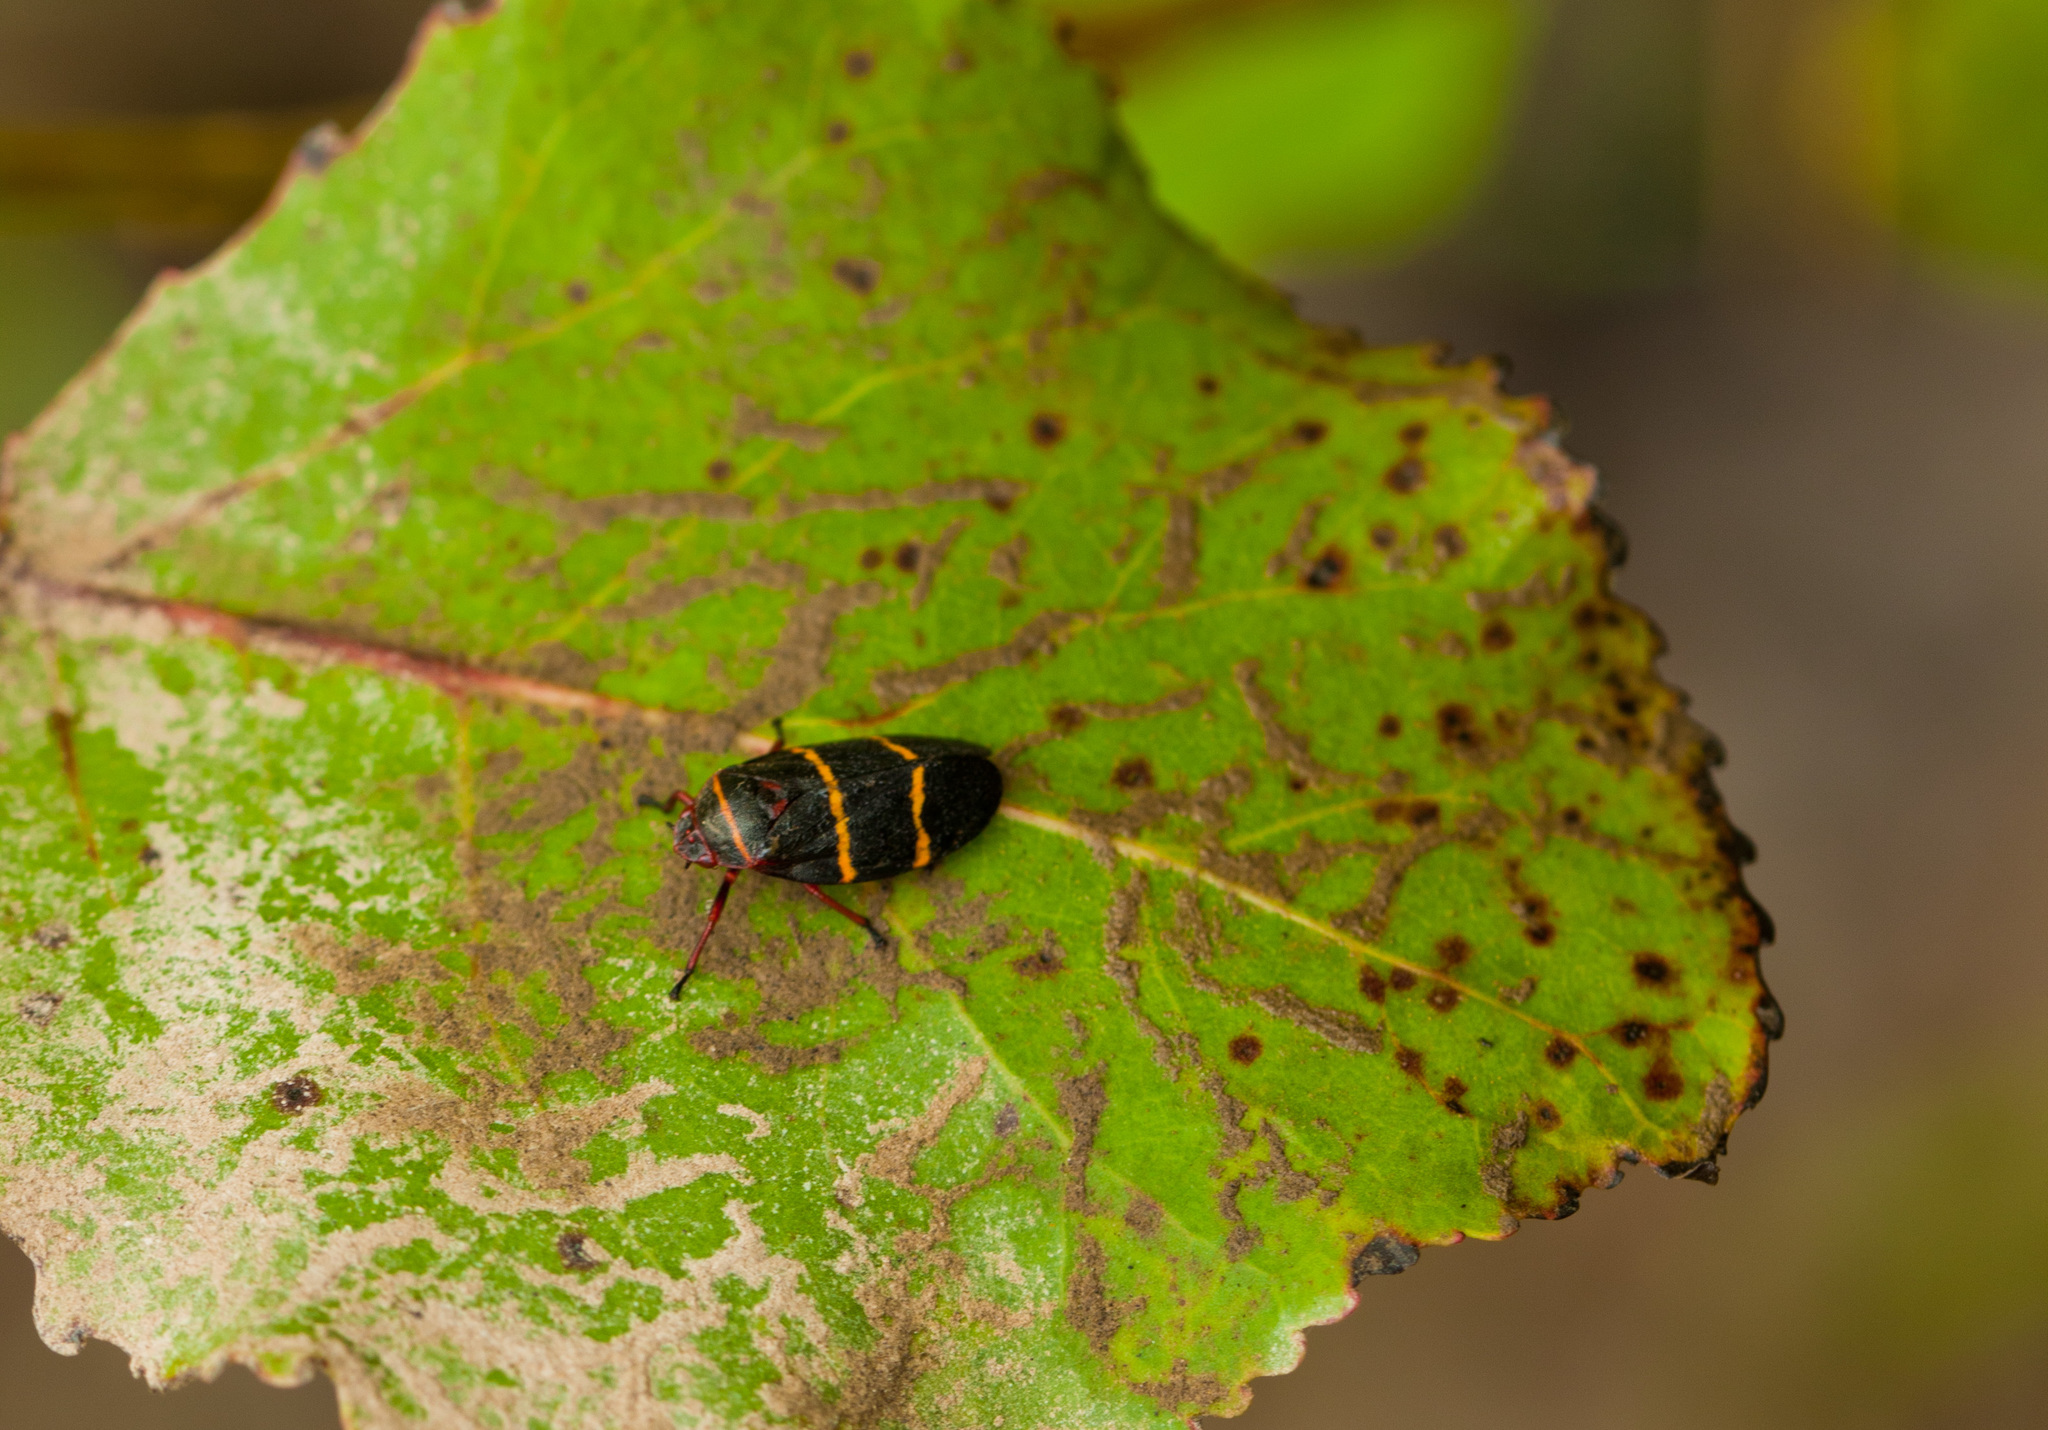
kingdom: Animalia
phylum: Arthropoda
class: Insecta
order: Hemiptera
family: Cercopidae
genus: Prosapia
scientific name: Prosapia bicincta
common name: Twolined spittlebug
